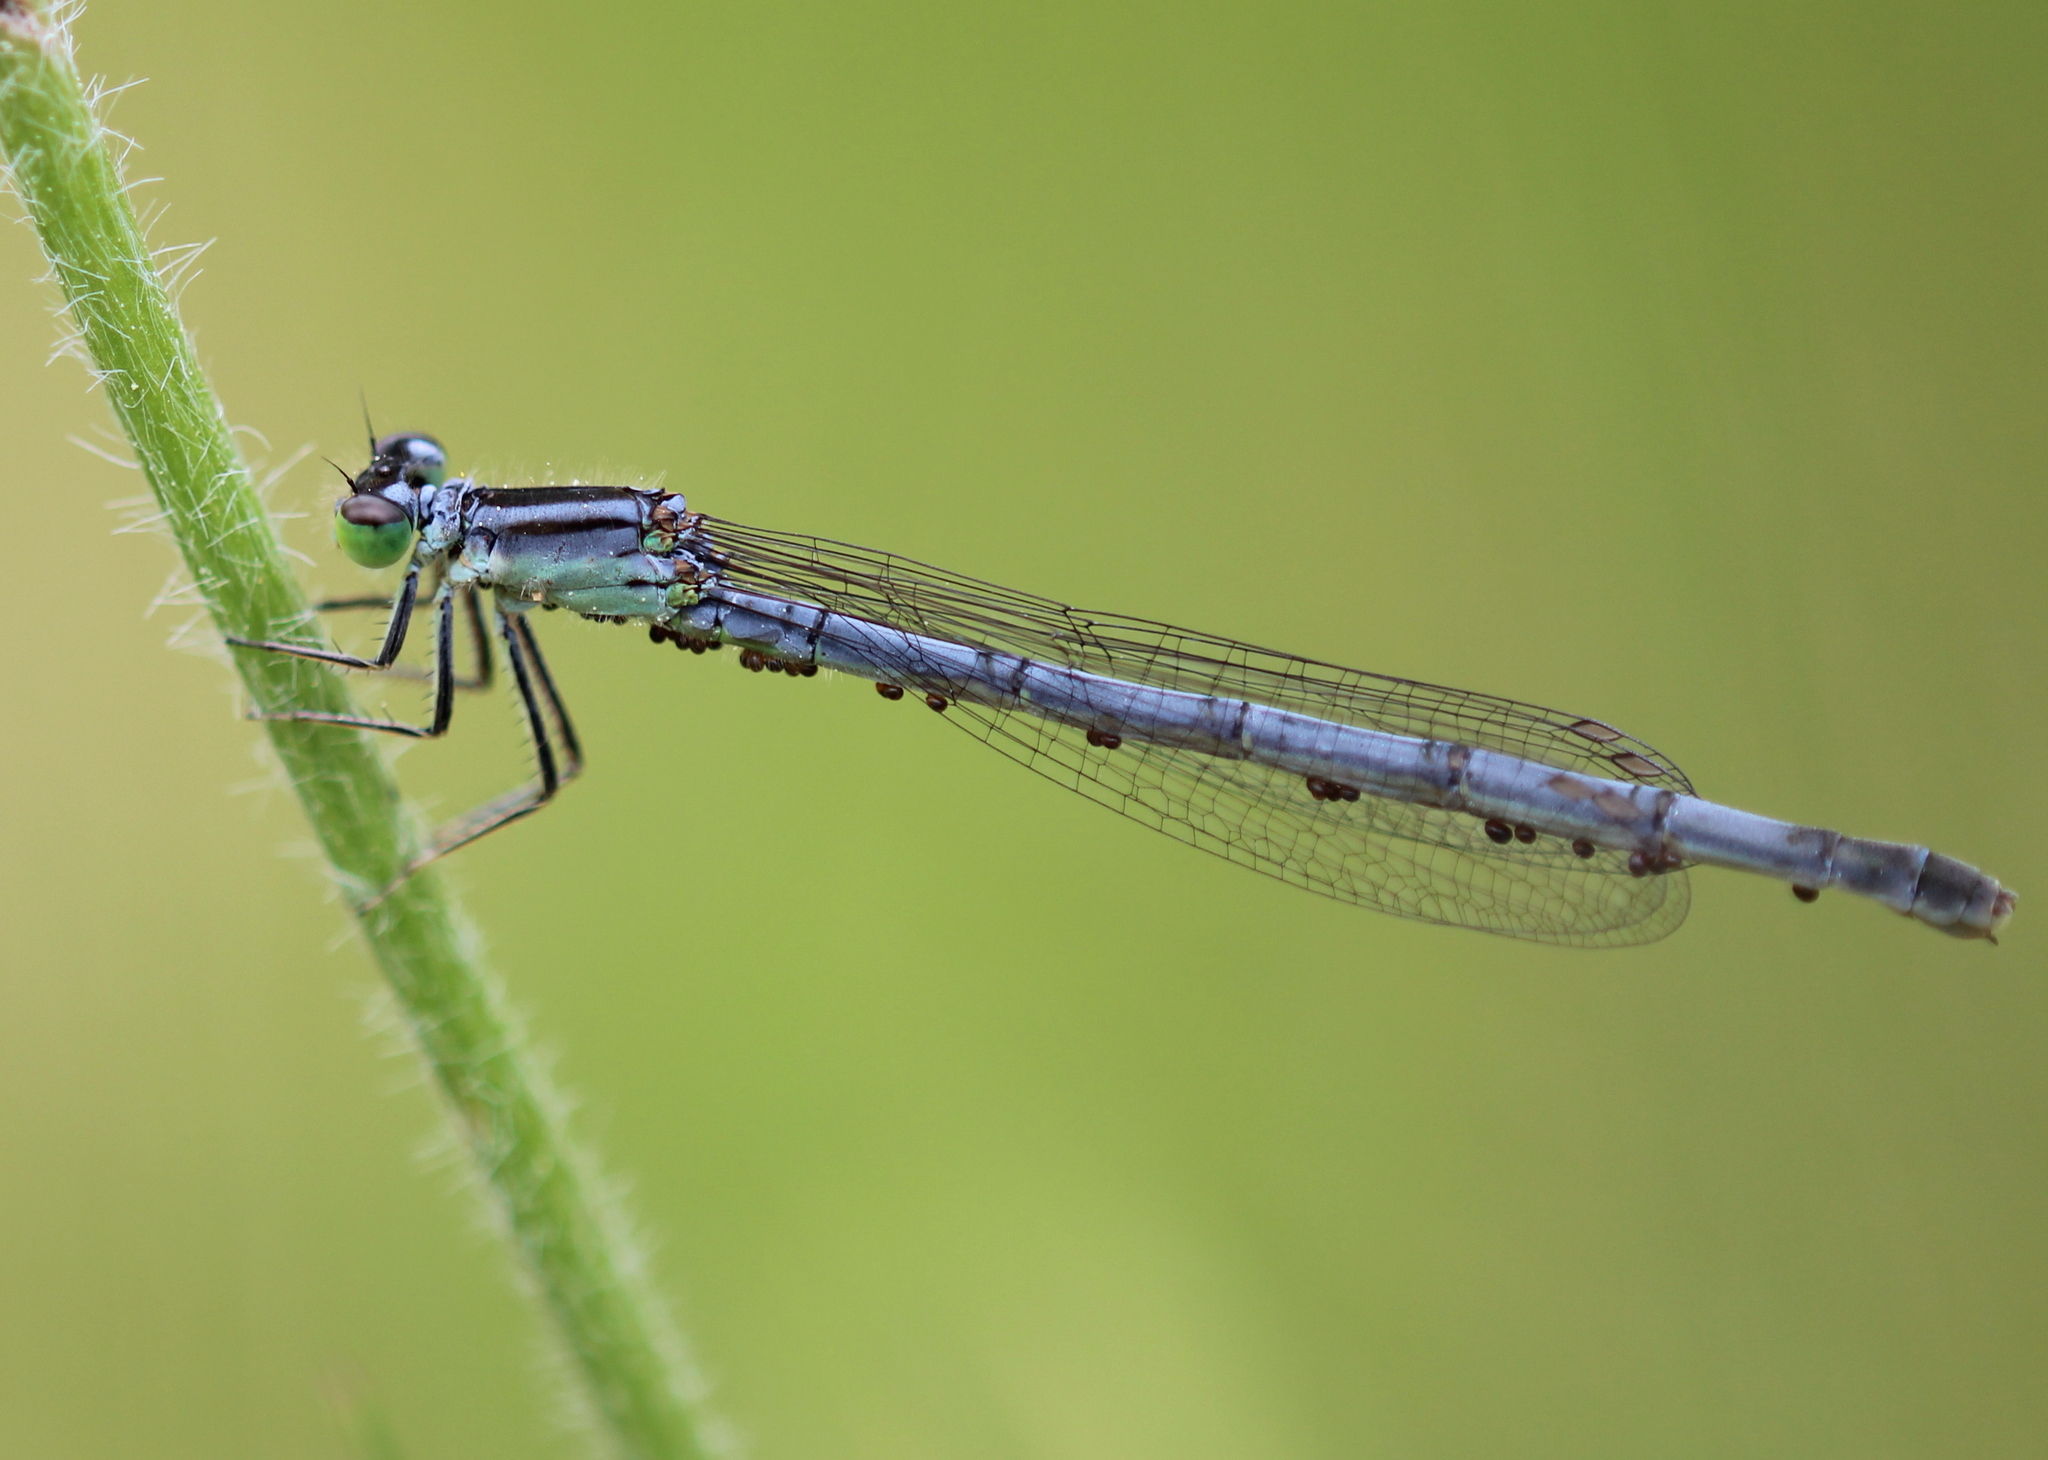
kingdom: Animalia
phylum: Arthropoda
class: Insecta
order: Odonata
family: Coenagrionidae
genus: Ischnura
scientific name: Ischnura verticalis
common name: Eastern forktail
